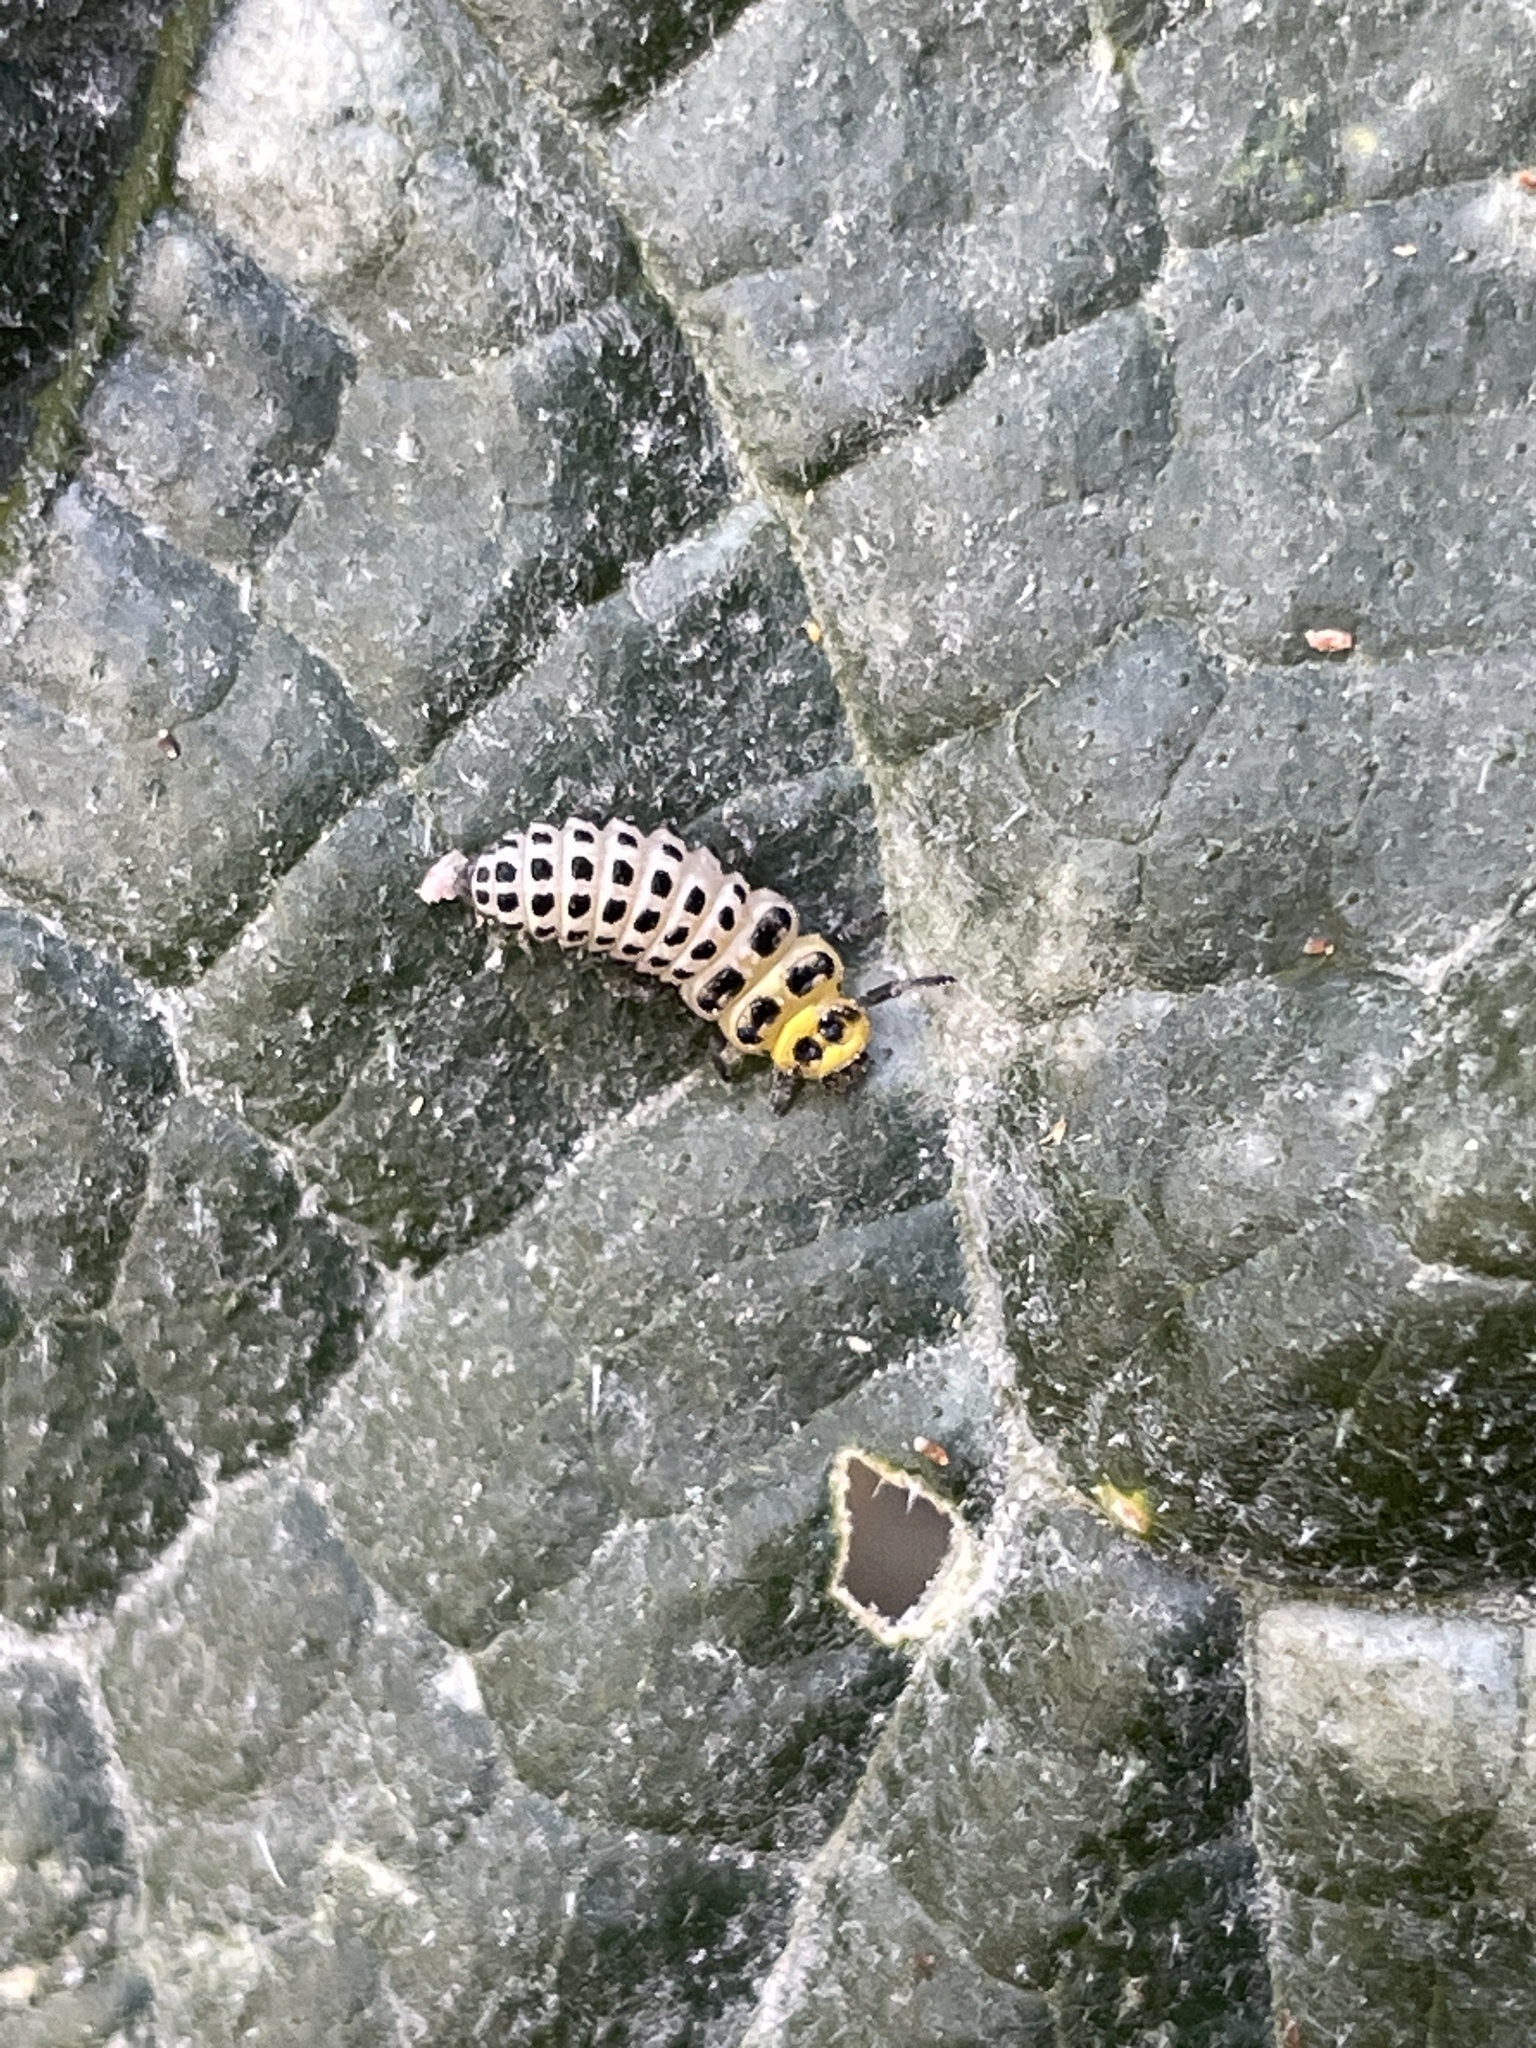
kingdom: Animalia
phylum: Arthropoda
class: Insecta
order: Coleoptera
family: Coccinellidae
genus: Illeis
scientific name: Illeis galbula
